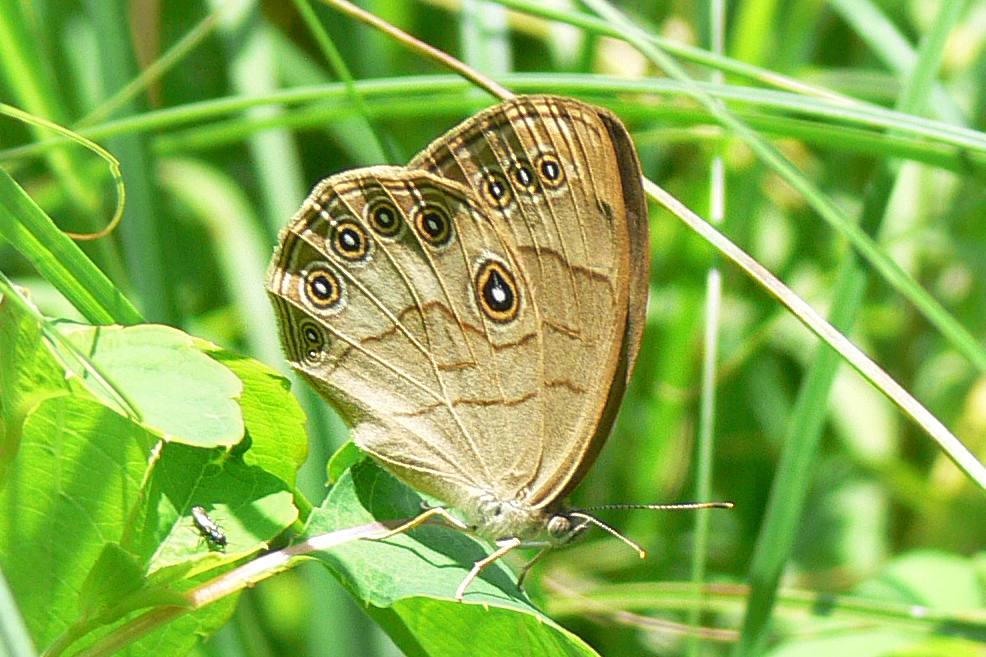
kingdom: Animalia
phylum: Arthropoda
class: Insecta
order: Lepidoptera
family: Nymphalidae
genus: Lethe
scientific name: Lethe eurydice
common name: Eyed brown
